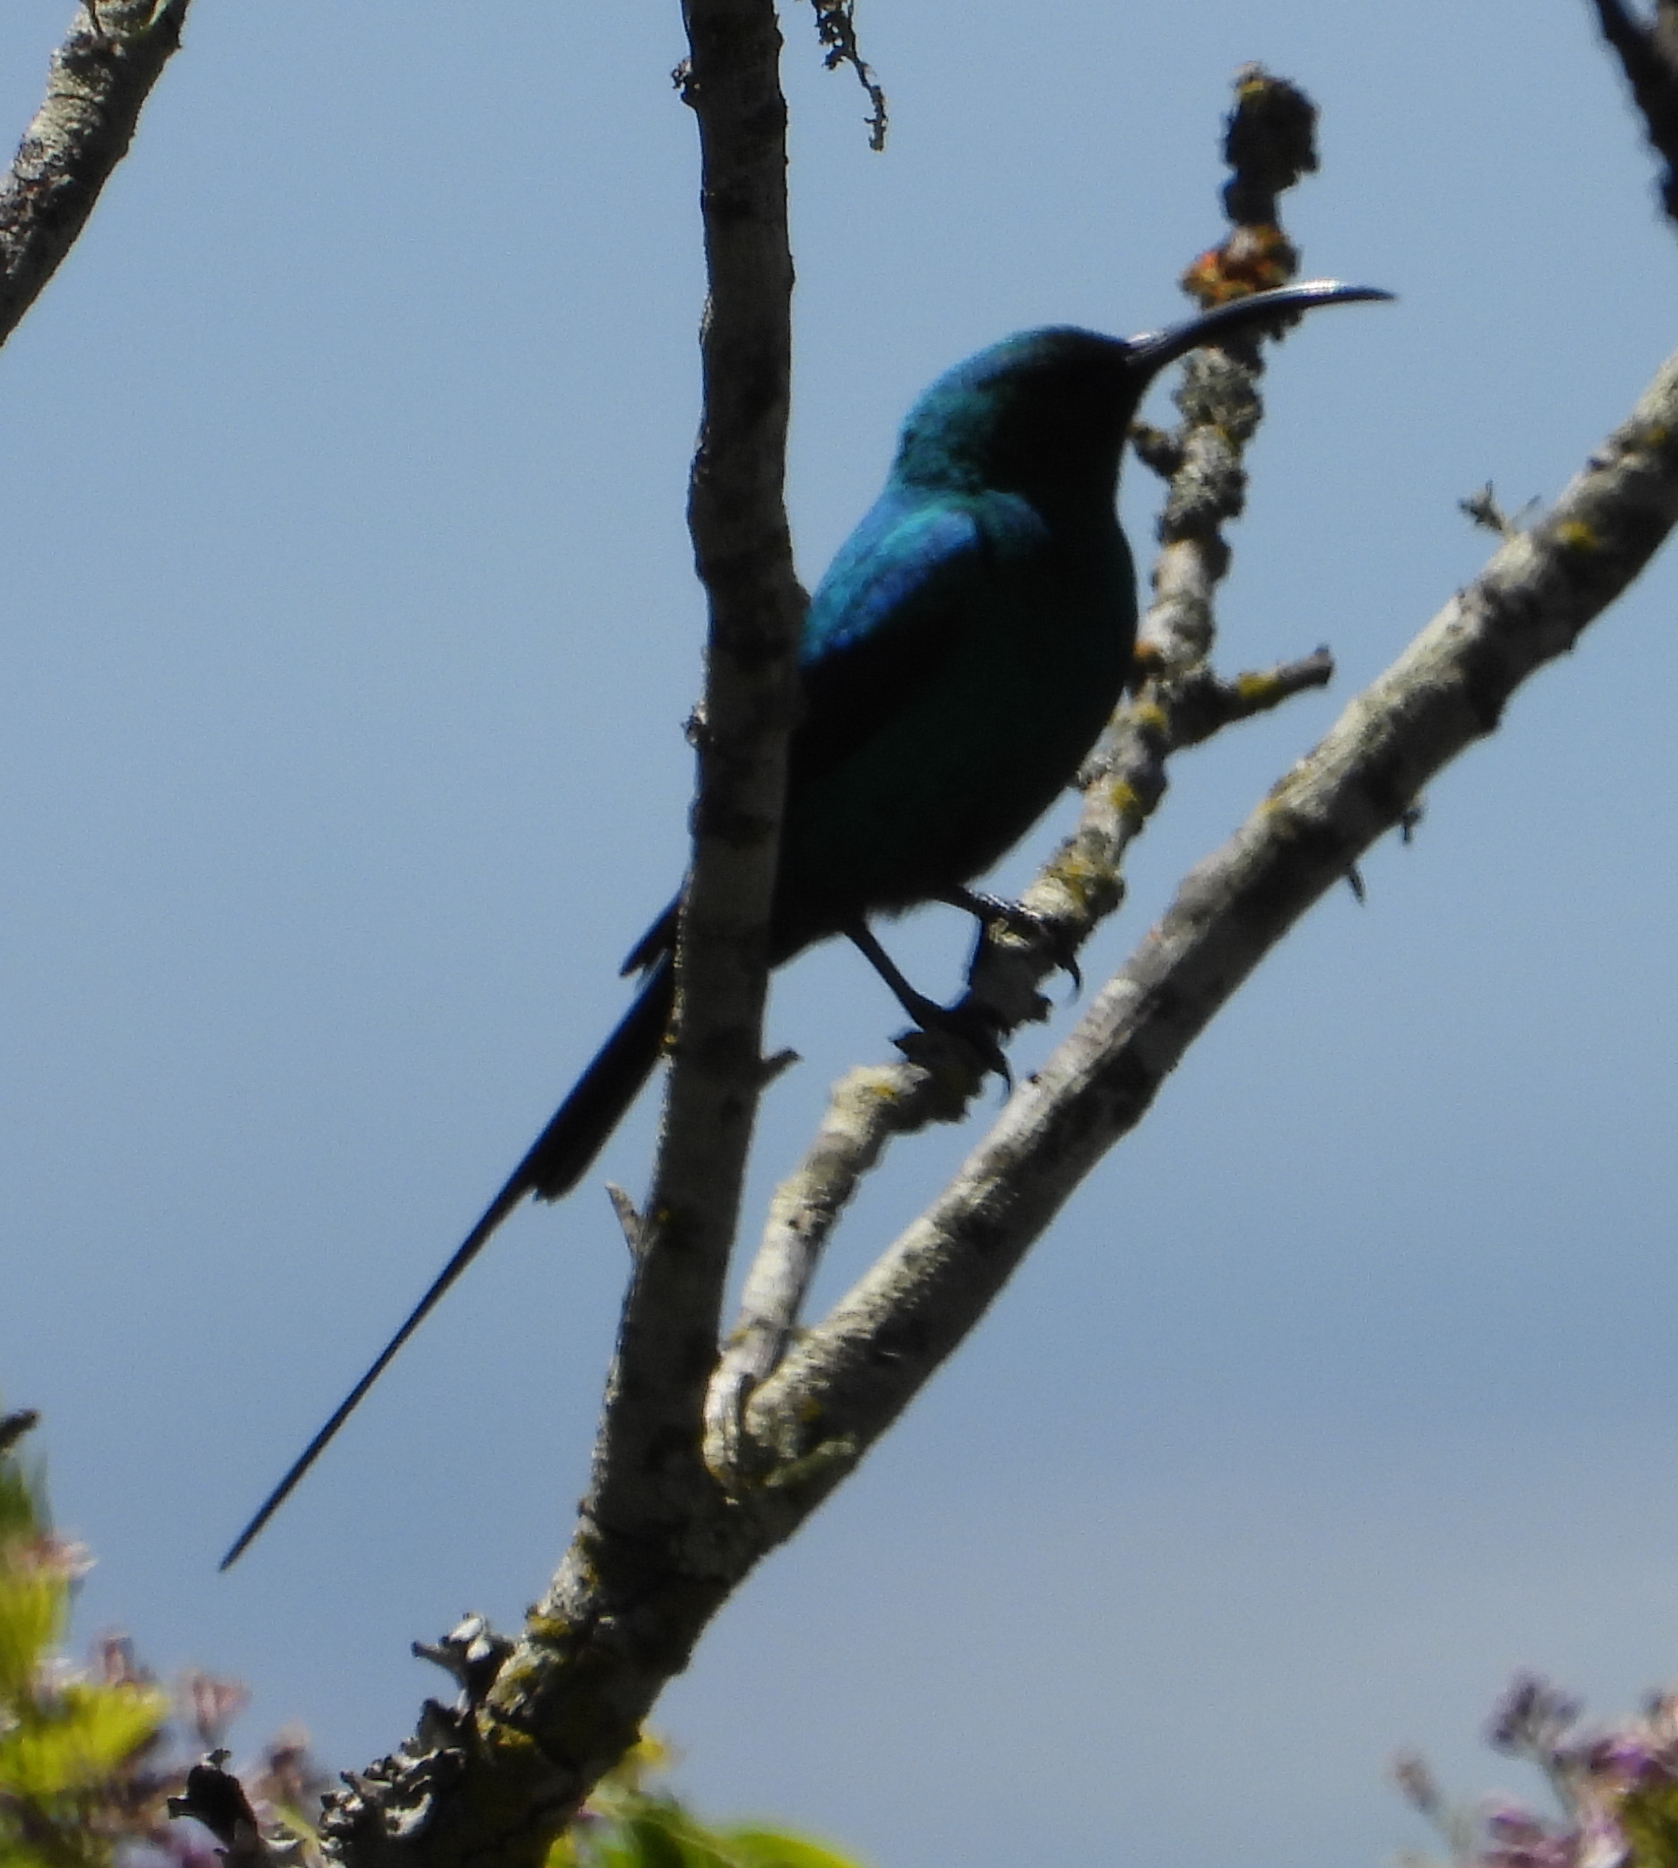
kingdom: Animalia
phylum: Chordata
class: Aves
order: Passeriformes
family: Nectariniidae
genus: Nectarinia
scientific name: Nectarinia famosa
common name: Malachite sunbird
